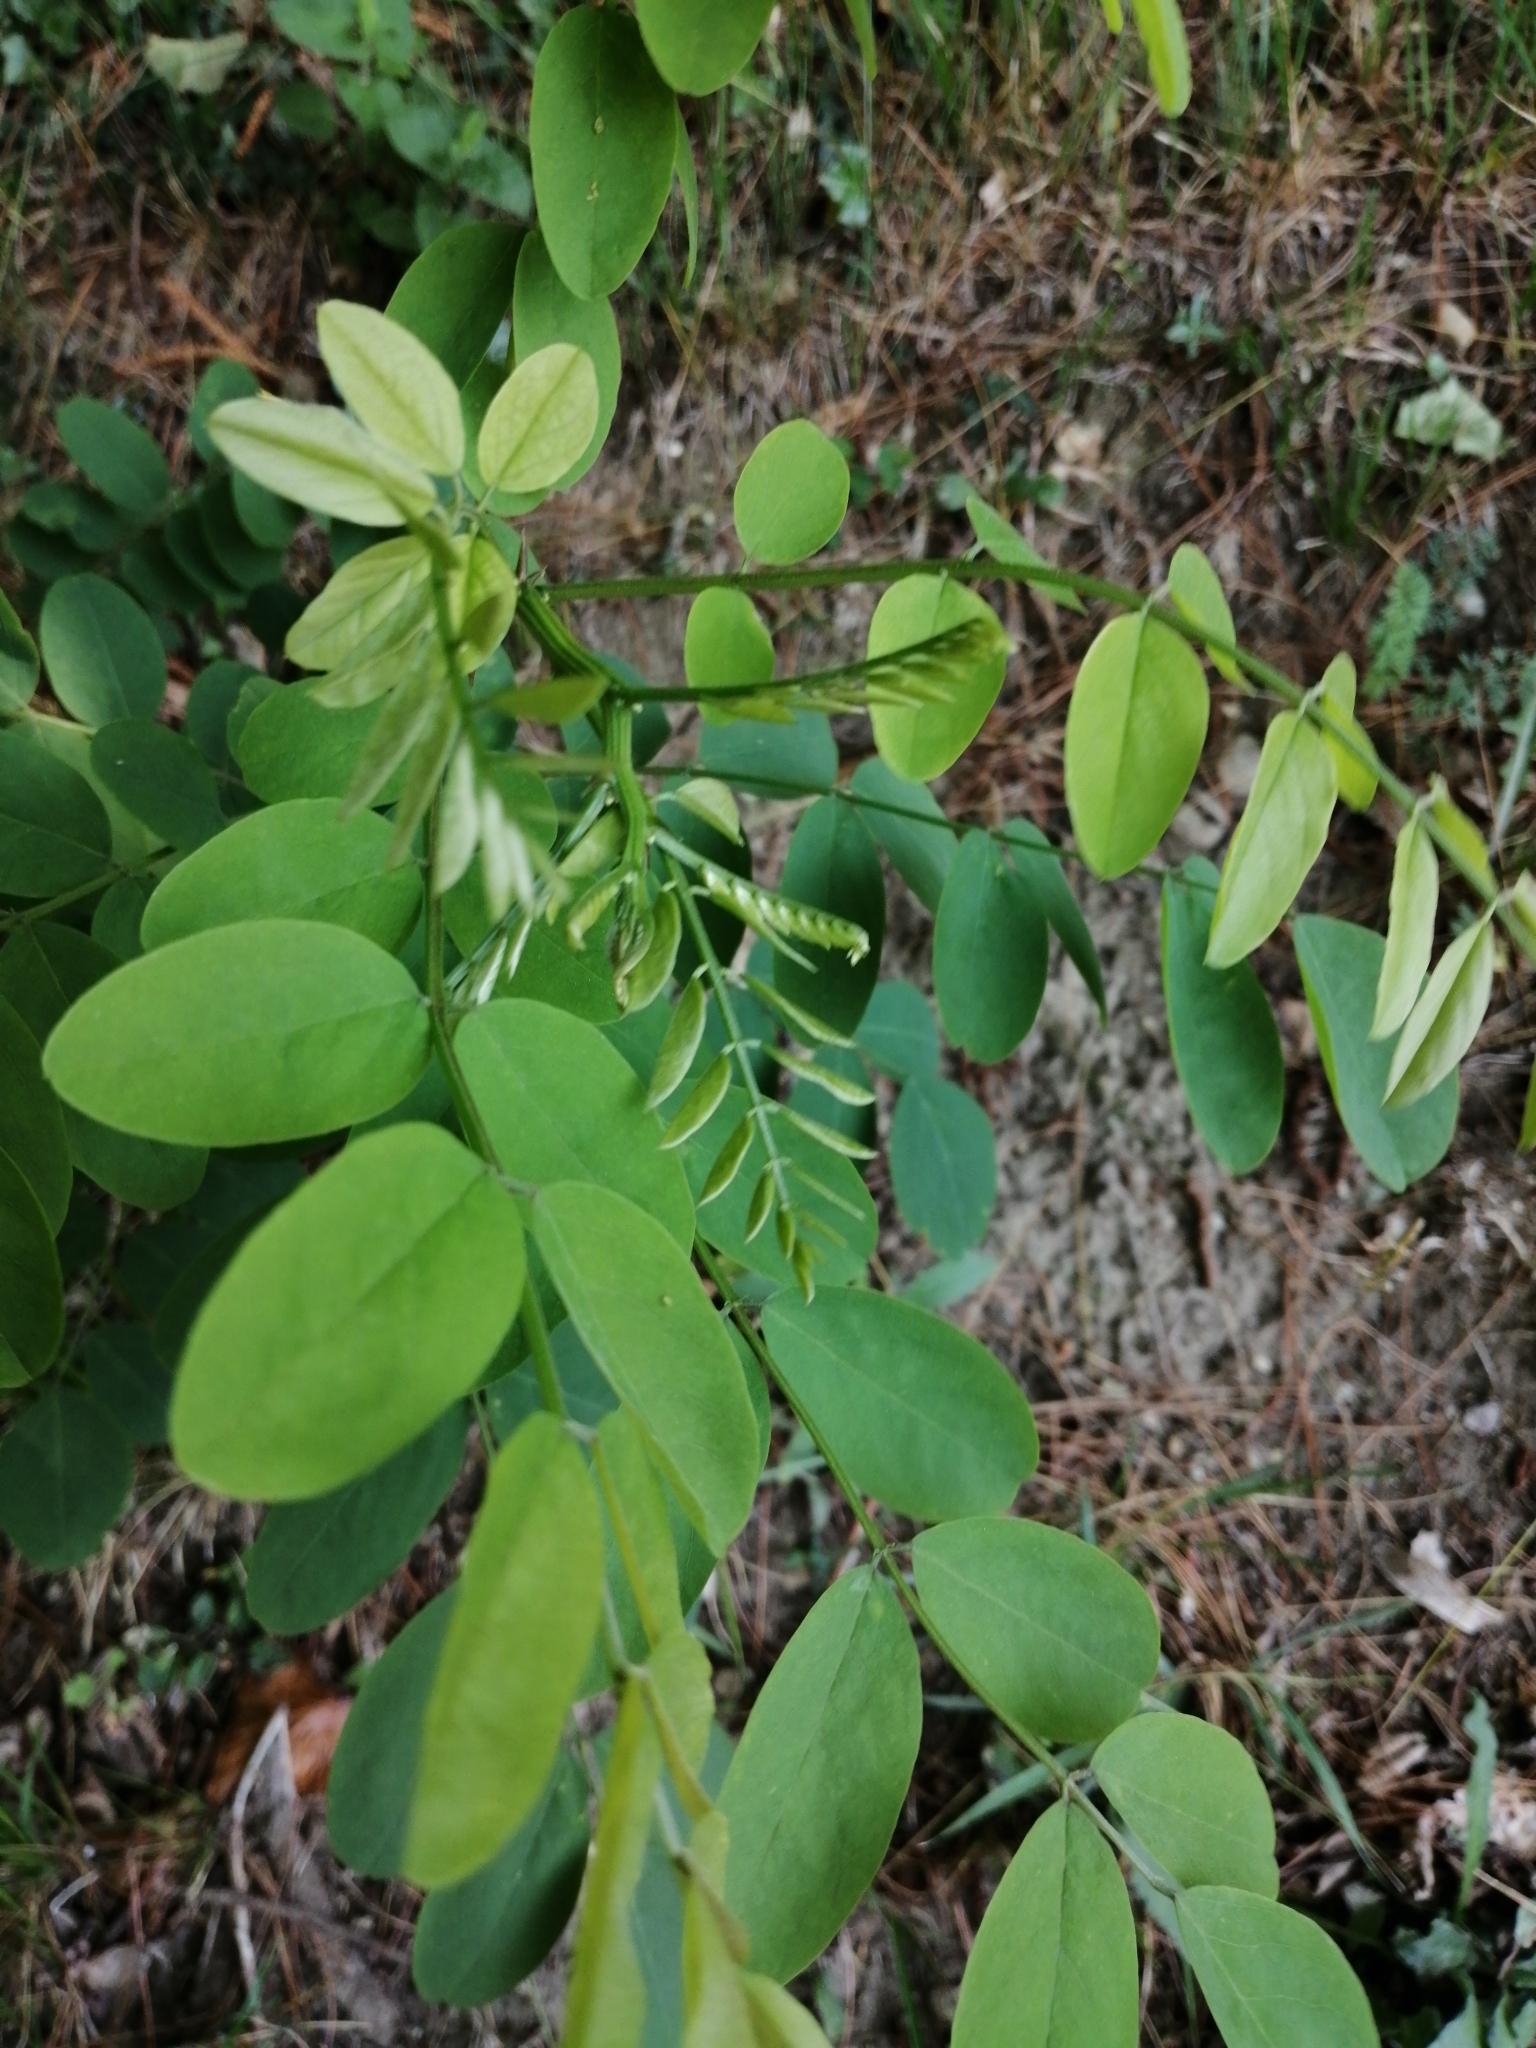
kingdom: Plantae
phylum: Tracheophyta
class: Magnoliopsida
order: Fabales
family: Fabaceae
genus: Robinia
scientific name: Robinia pseudoacacia
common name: Black locust
